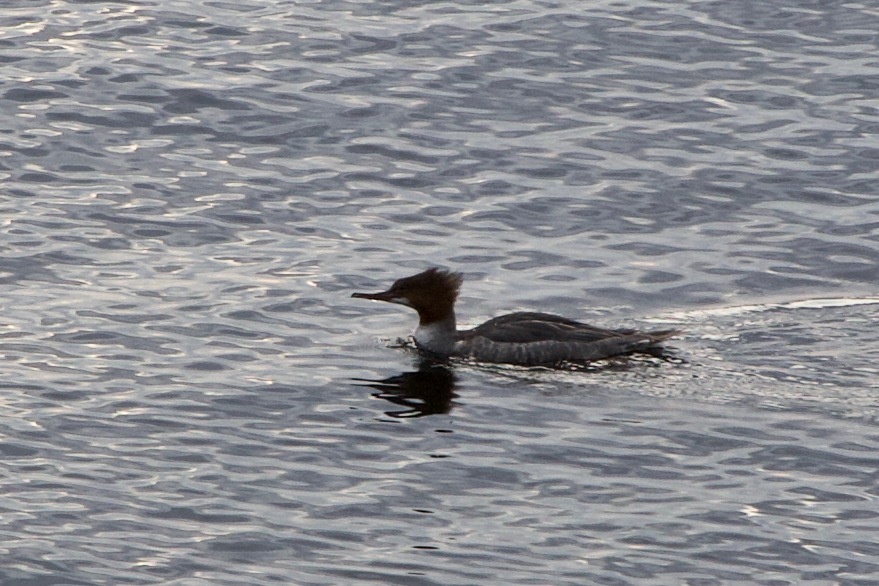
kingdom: Animalia
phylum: Chordata
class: Aves
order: Anseriformes
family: Anatidae
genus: Mergus
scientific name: Mergus merganser
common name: Common merganser
